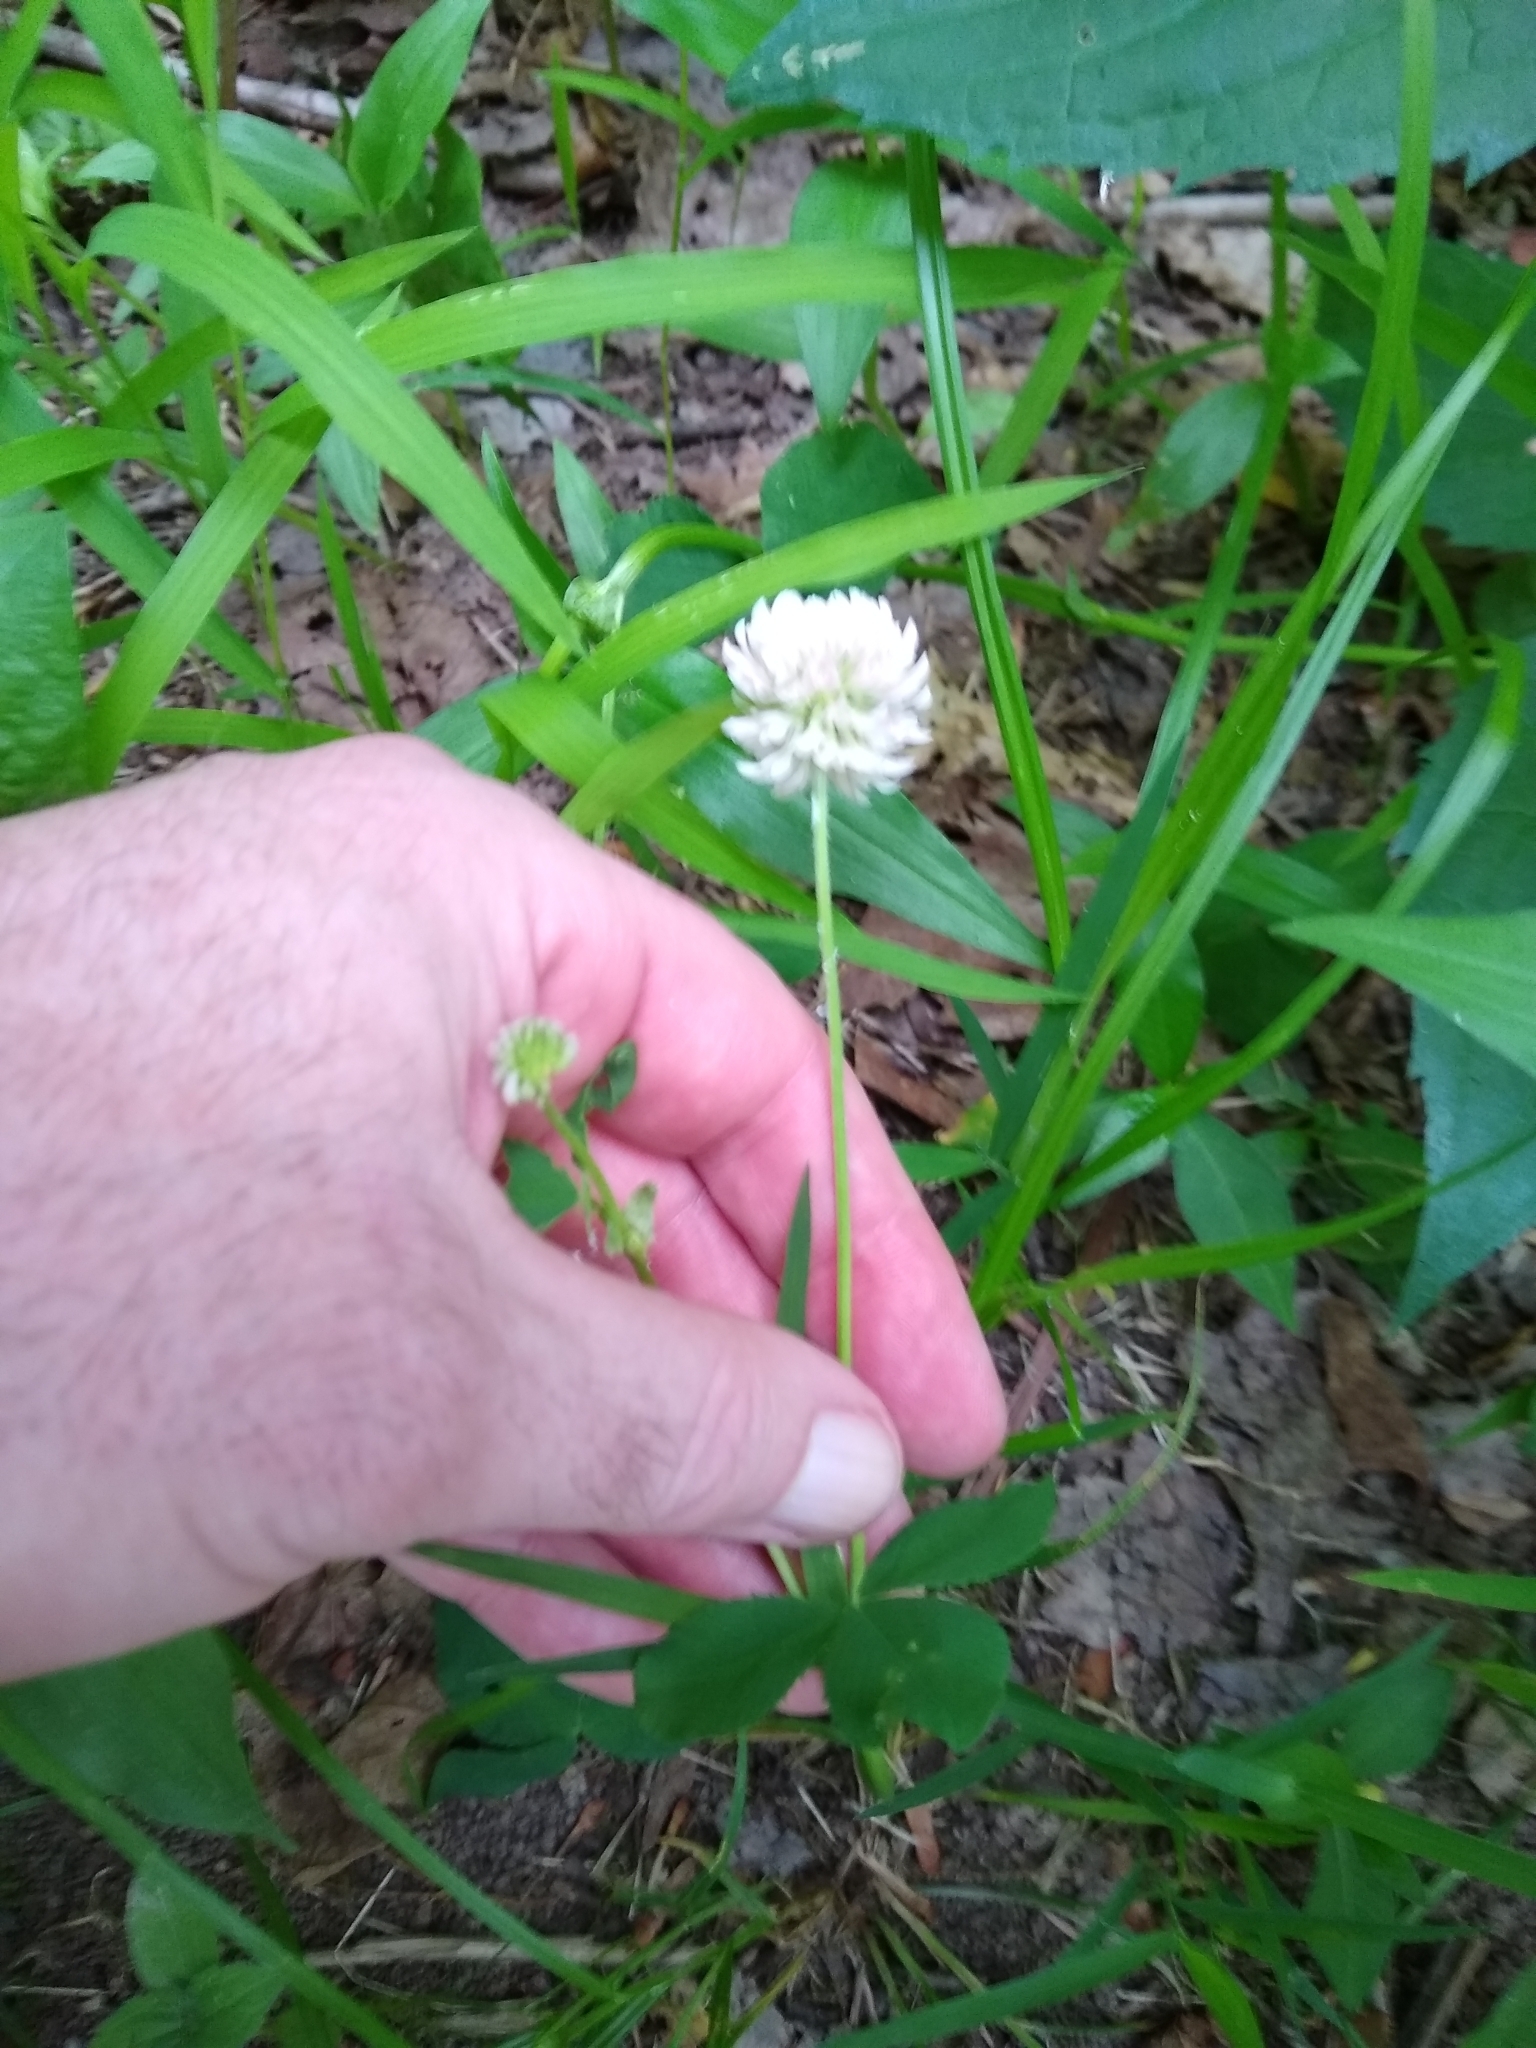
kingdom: Plantae
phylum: Tracheophyta
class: Magnoliopsida
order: Fabales
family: Fabaceae
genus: Trifolium
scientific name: Trifolium hybridum
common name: Alsike clover
